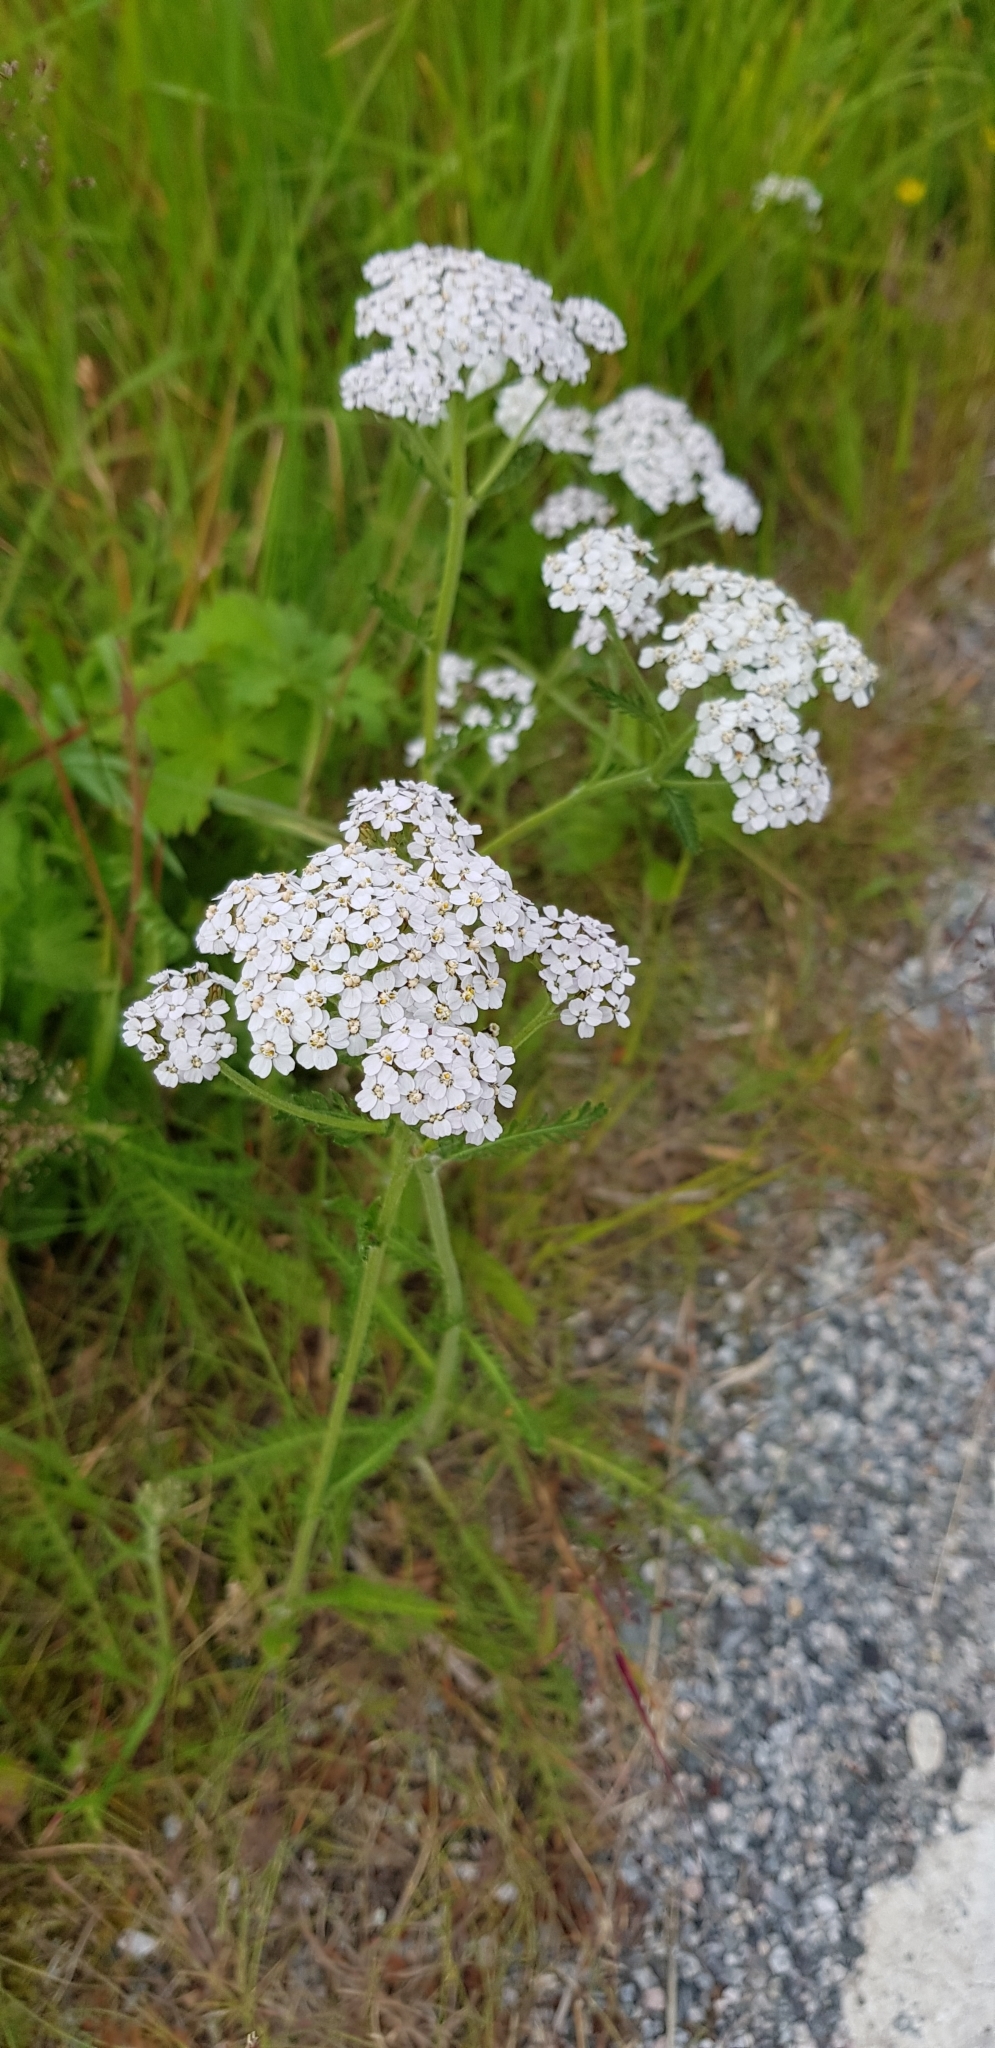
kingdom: Plantae
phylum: Tracheophyta
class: Magnoliopsida
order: Asterales
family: Asteraceae
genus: Achillea
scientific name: Achillea millefolium
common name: Yarrow
